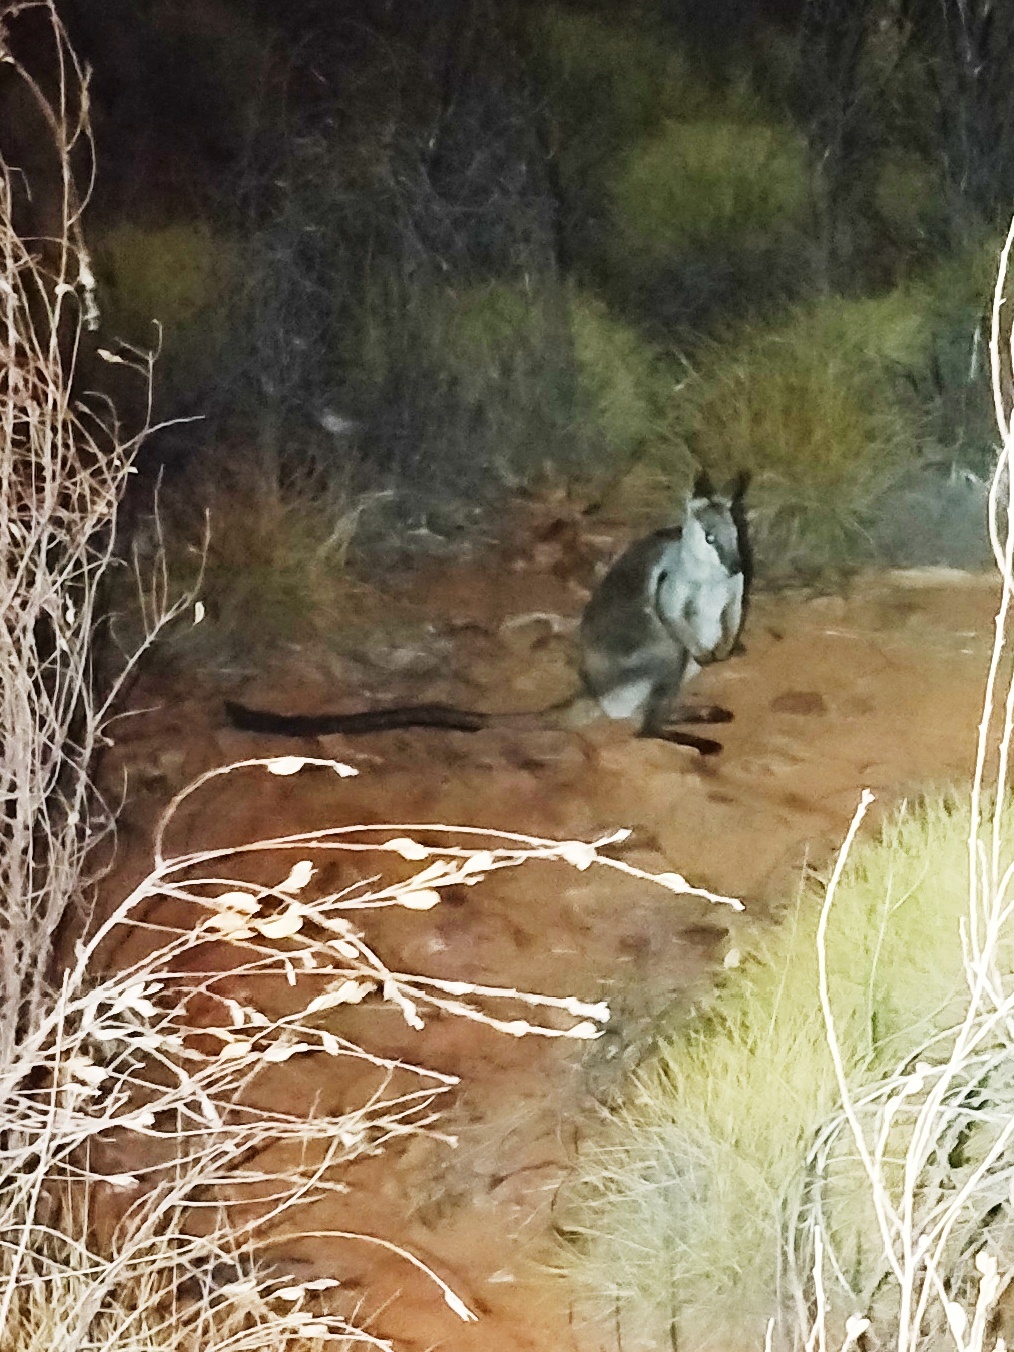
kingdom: Animalia
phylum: Chordata
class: Mammalia
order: Diprotodontia
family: Macropodidae
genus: Petrogale
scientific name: Petrogale lateralis
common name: Black-flanked rock-wallaby
